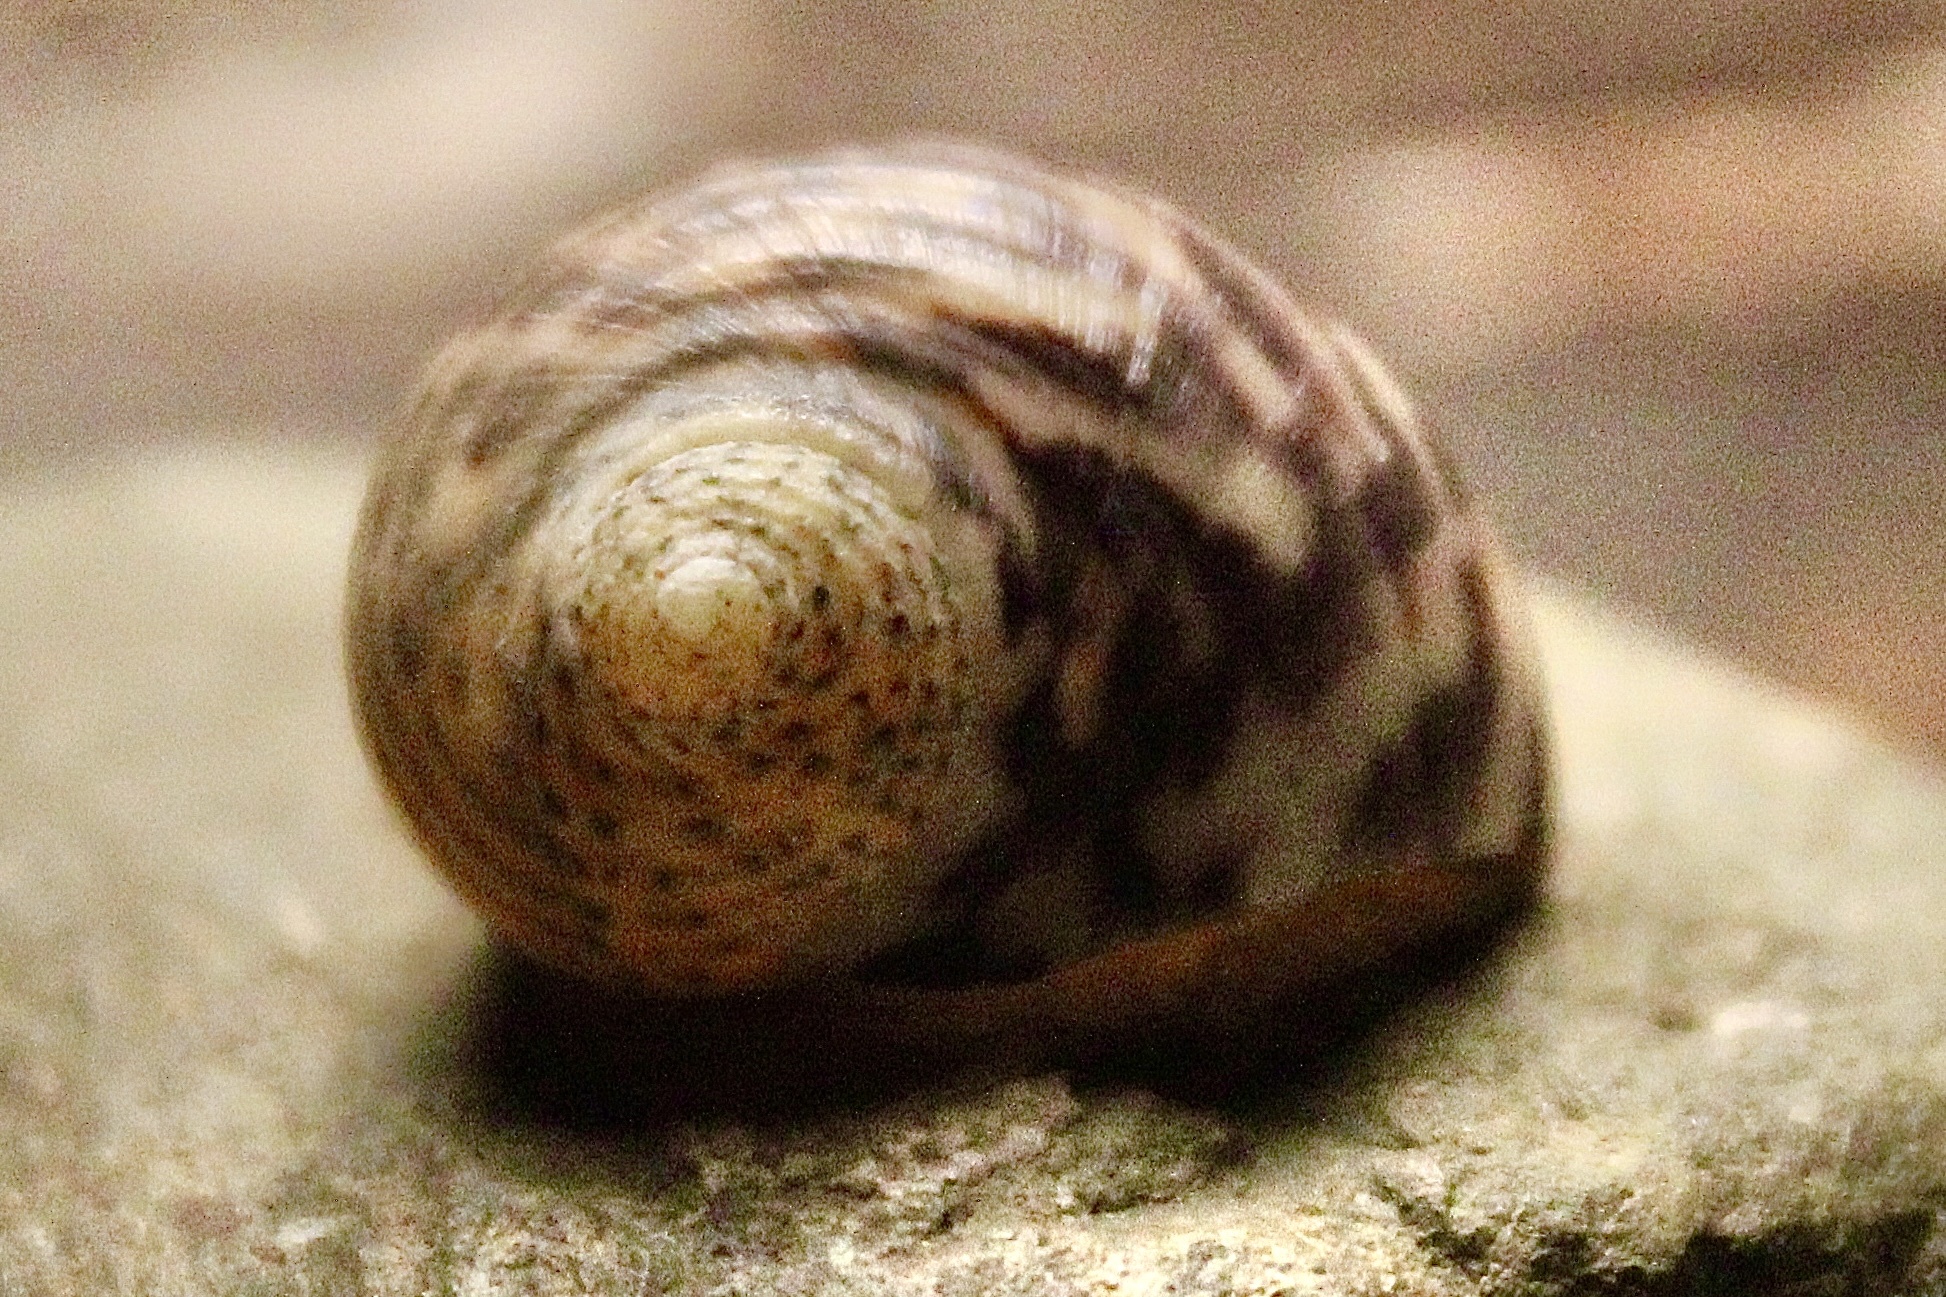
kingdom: Animalia
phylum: Mollusca
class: Gastropoda
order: Cycloneritida
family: Neritidae
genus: Nerita
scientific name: Nerita peloronta
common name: Bleeding tooth
